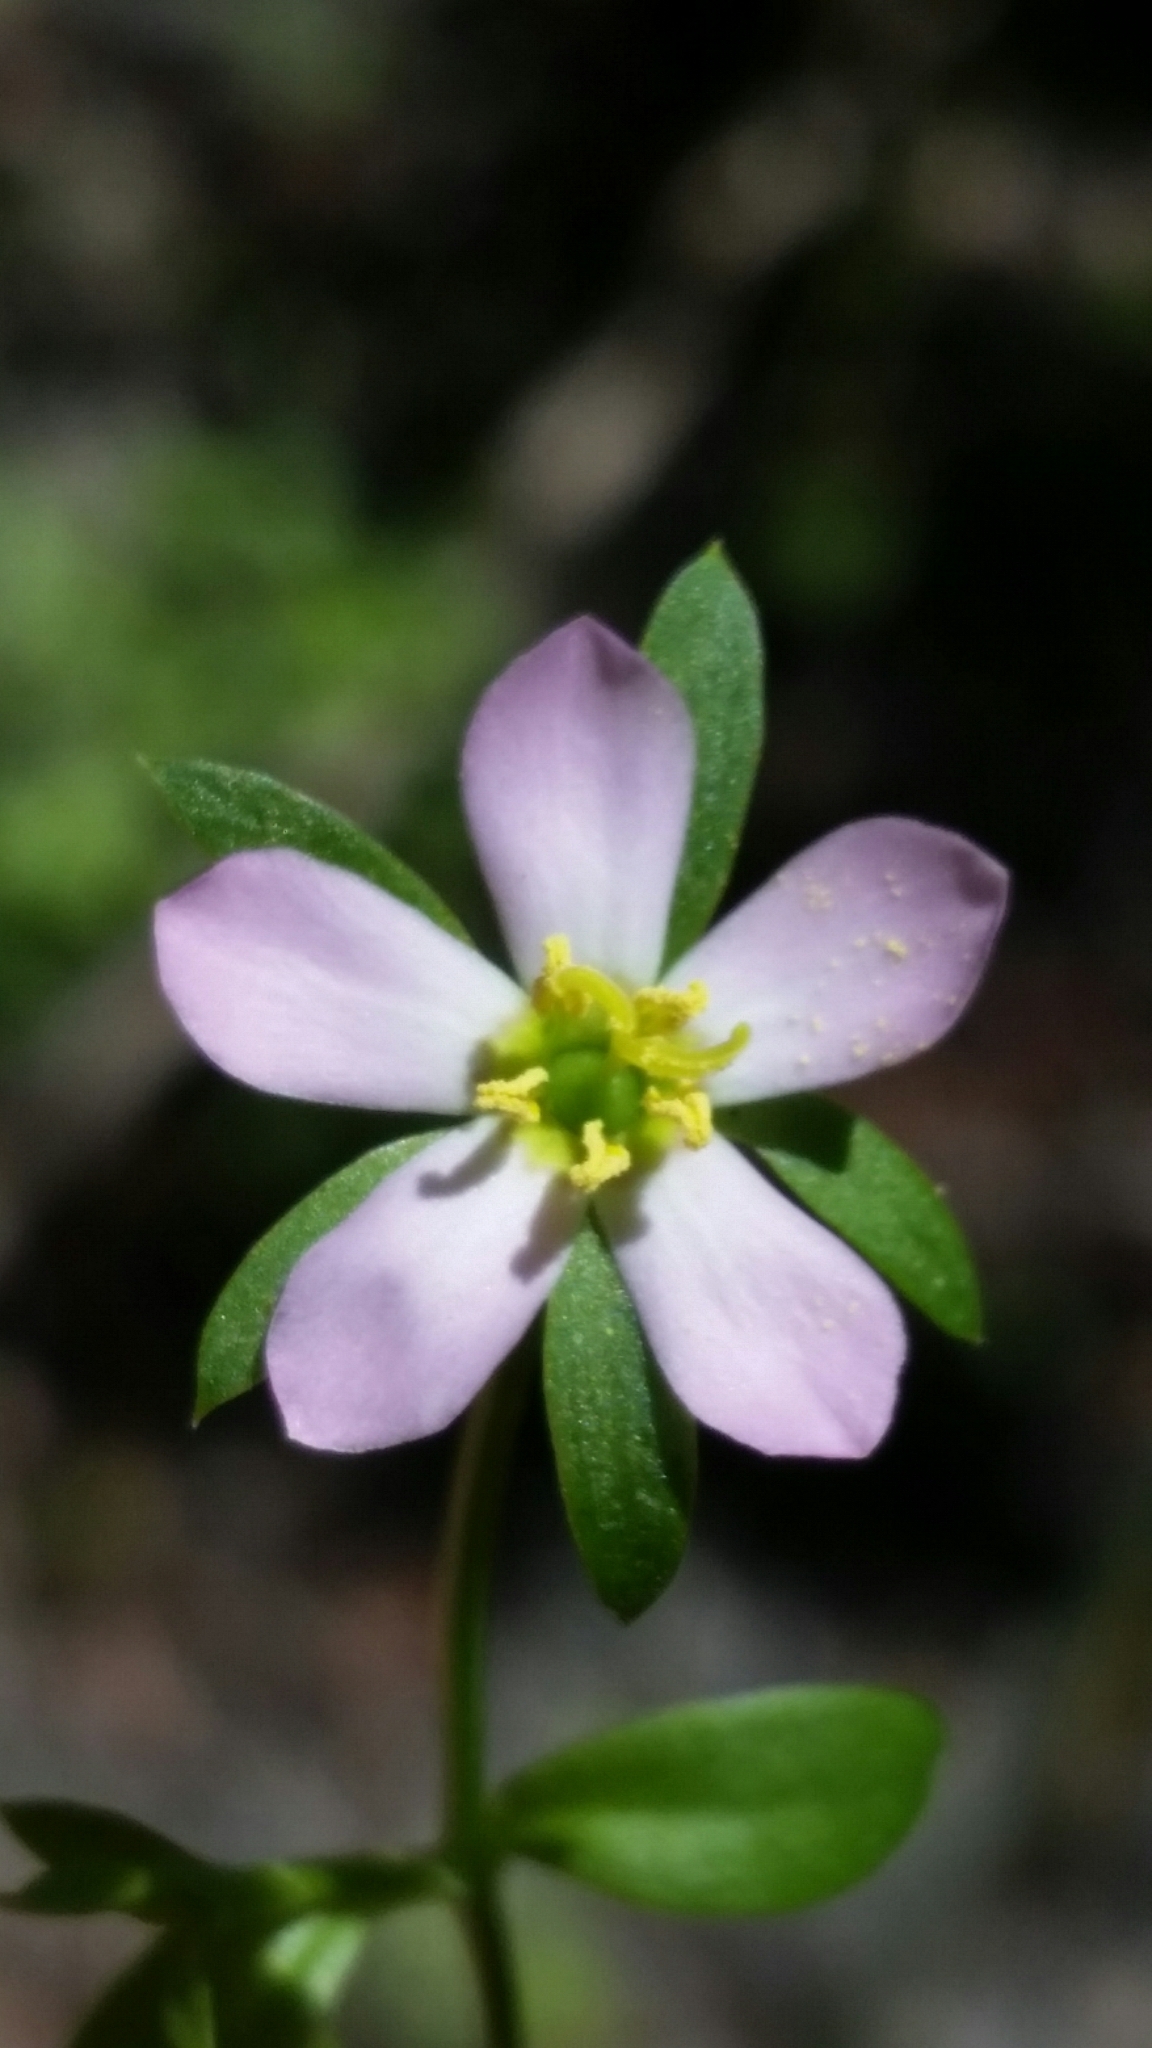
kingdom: Plantae
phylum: Tracheophyta
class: Magnoliopsida
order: Gentianales
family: Gentianaceae
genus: Sabatia
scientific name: Sabatia calycina
